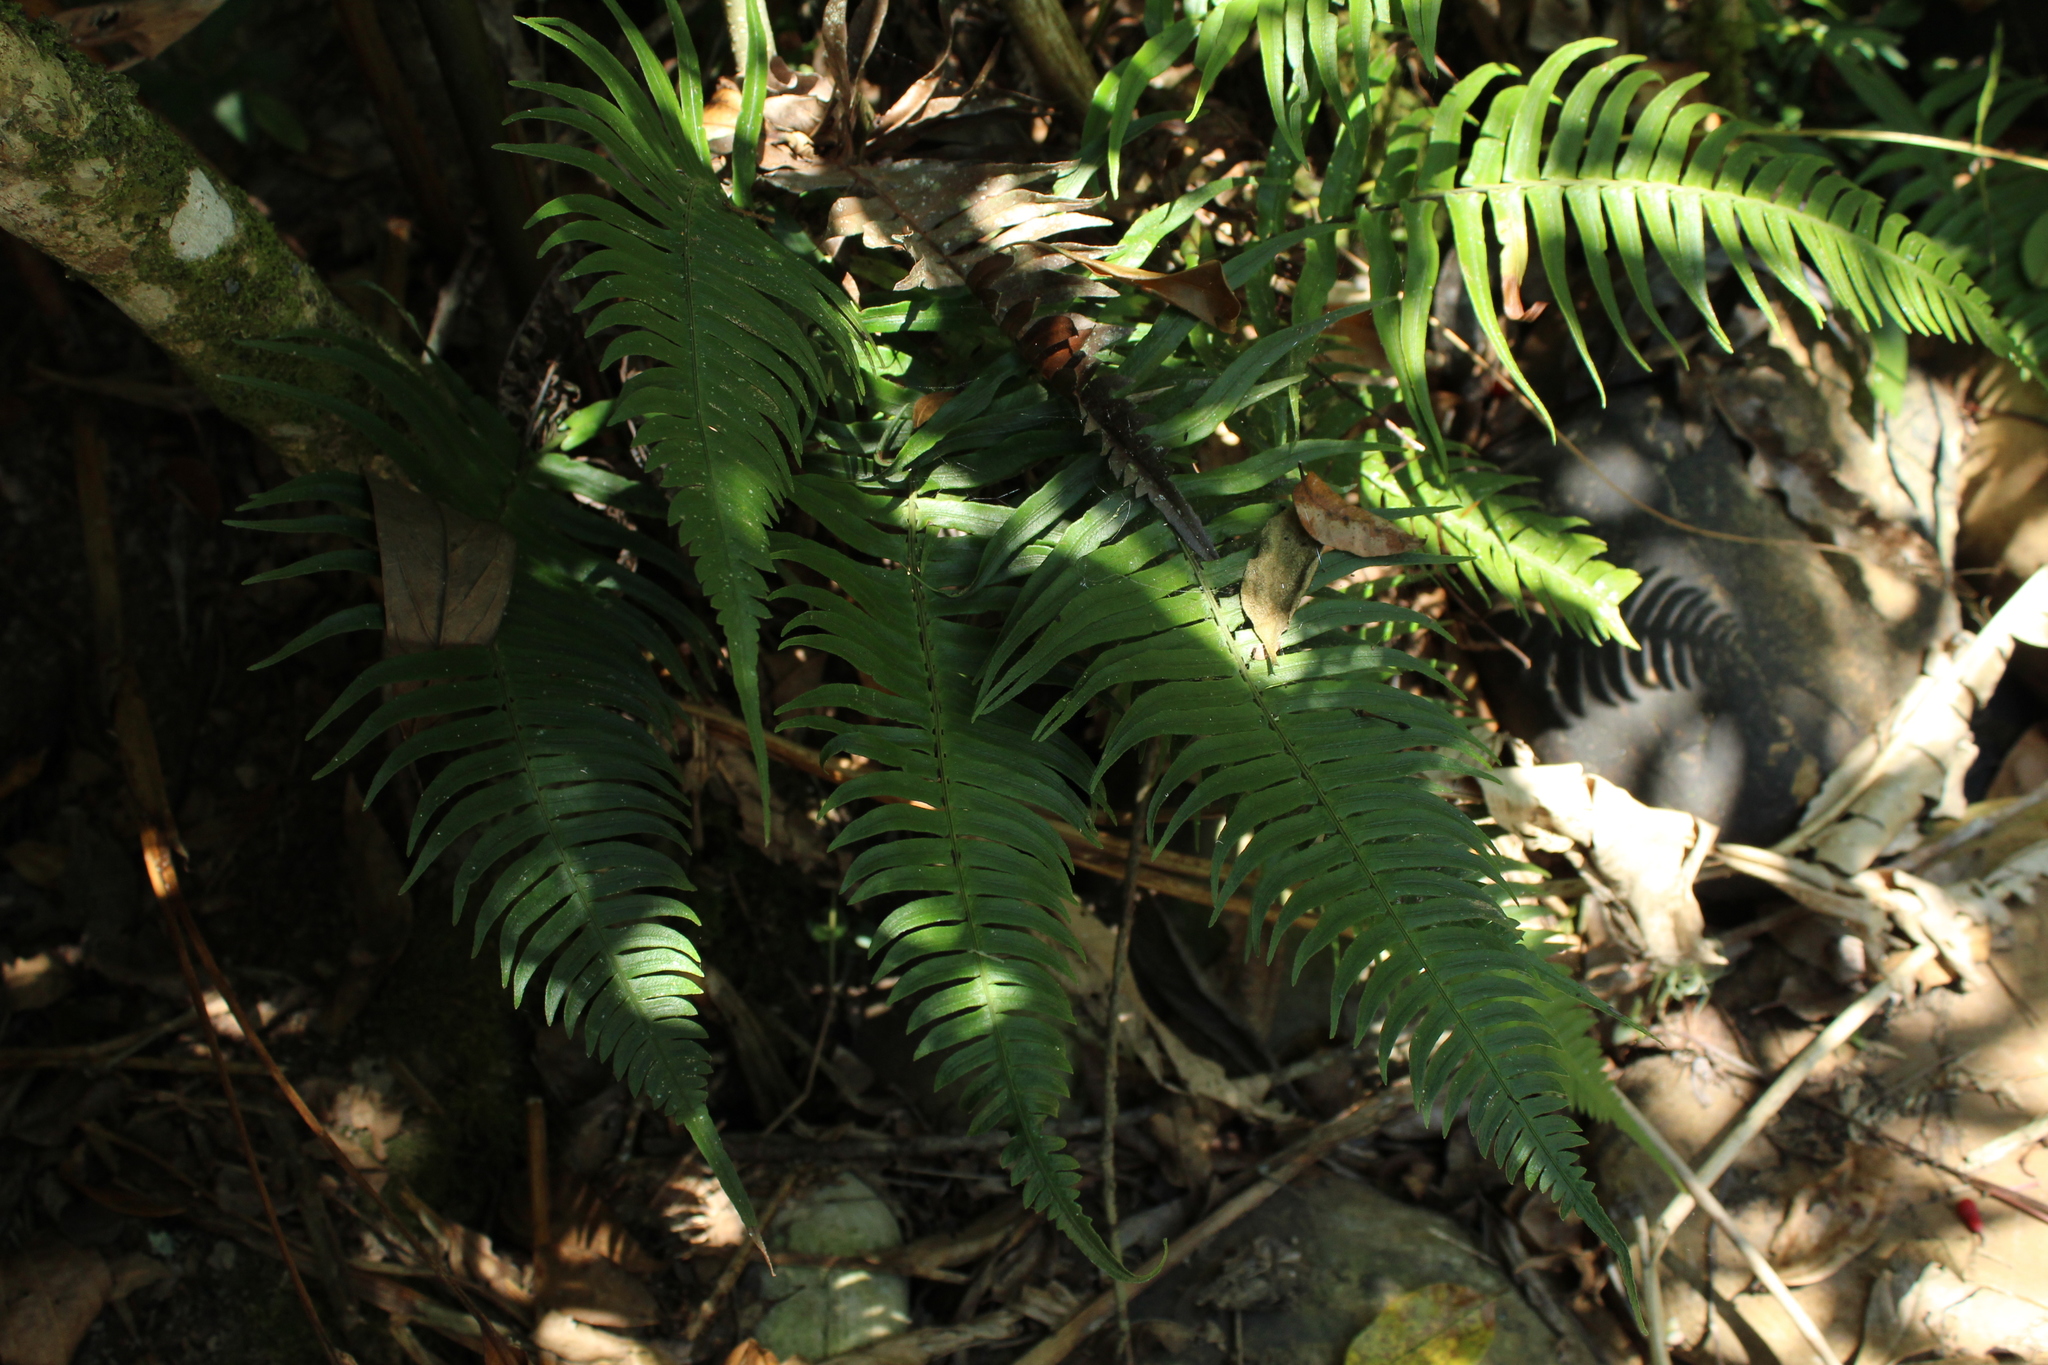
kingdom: Plantae
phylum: Tracheophyta
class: Polypodiopsida
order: Polypodiales
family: Blechnaceae
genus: Blechnum
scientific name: Blechnum occidentale
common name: Hammock fern
